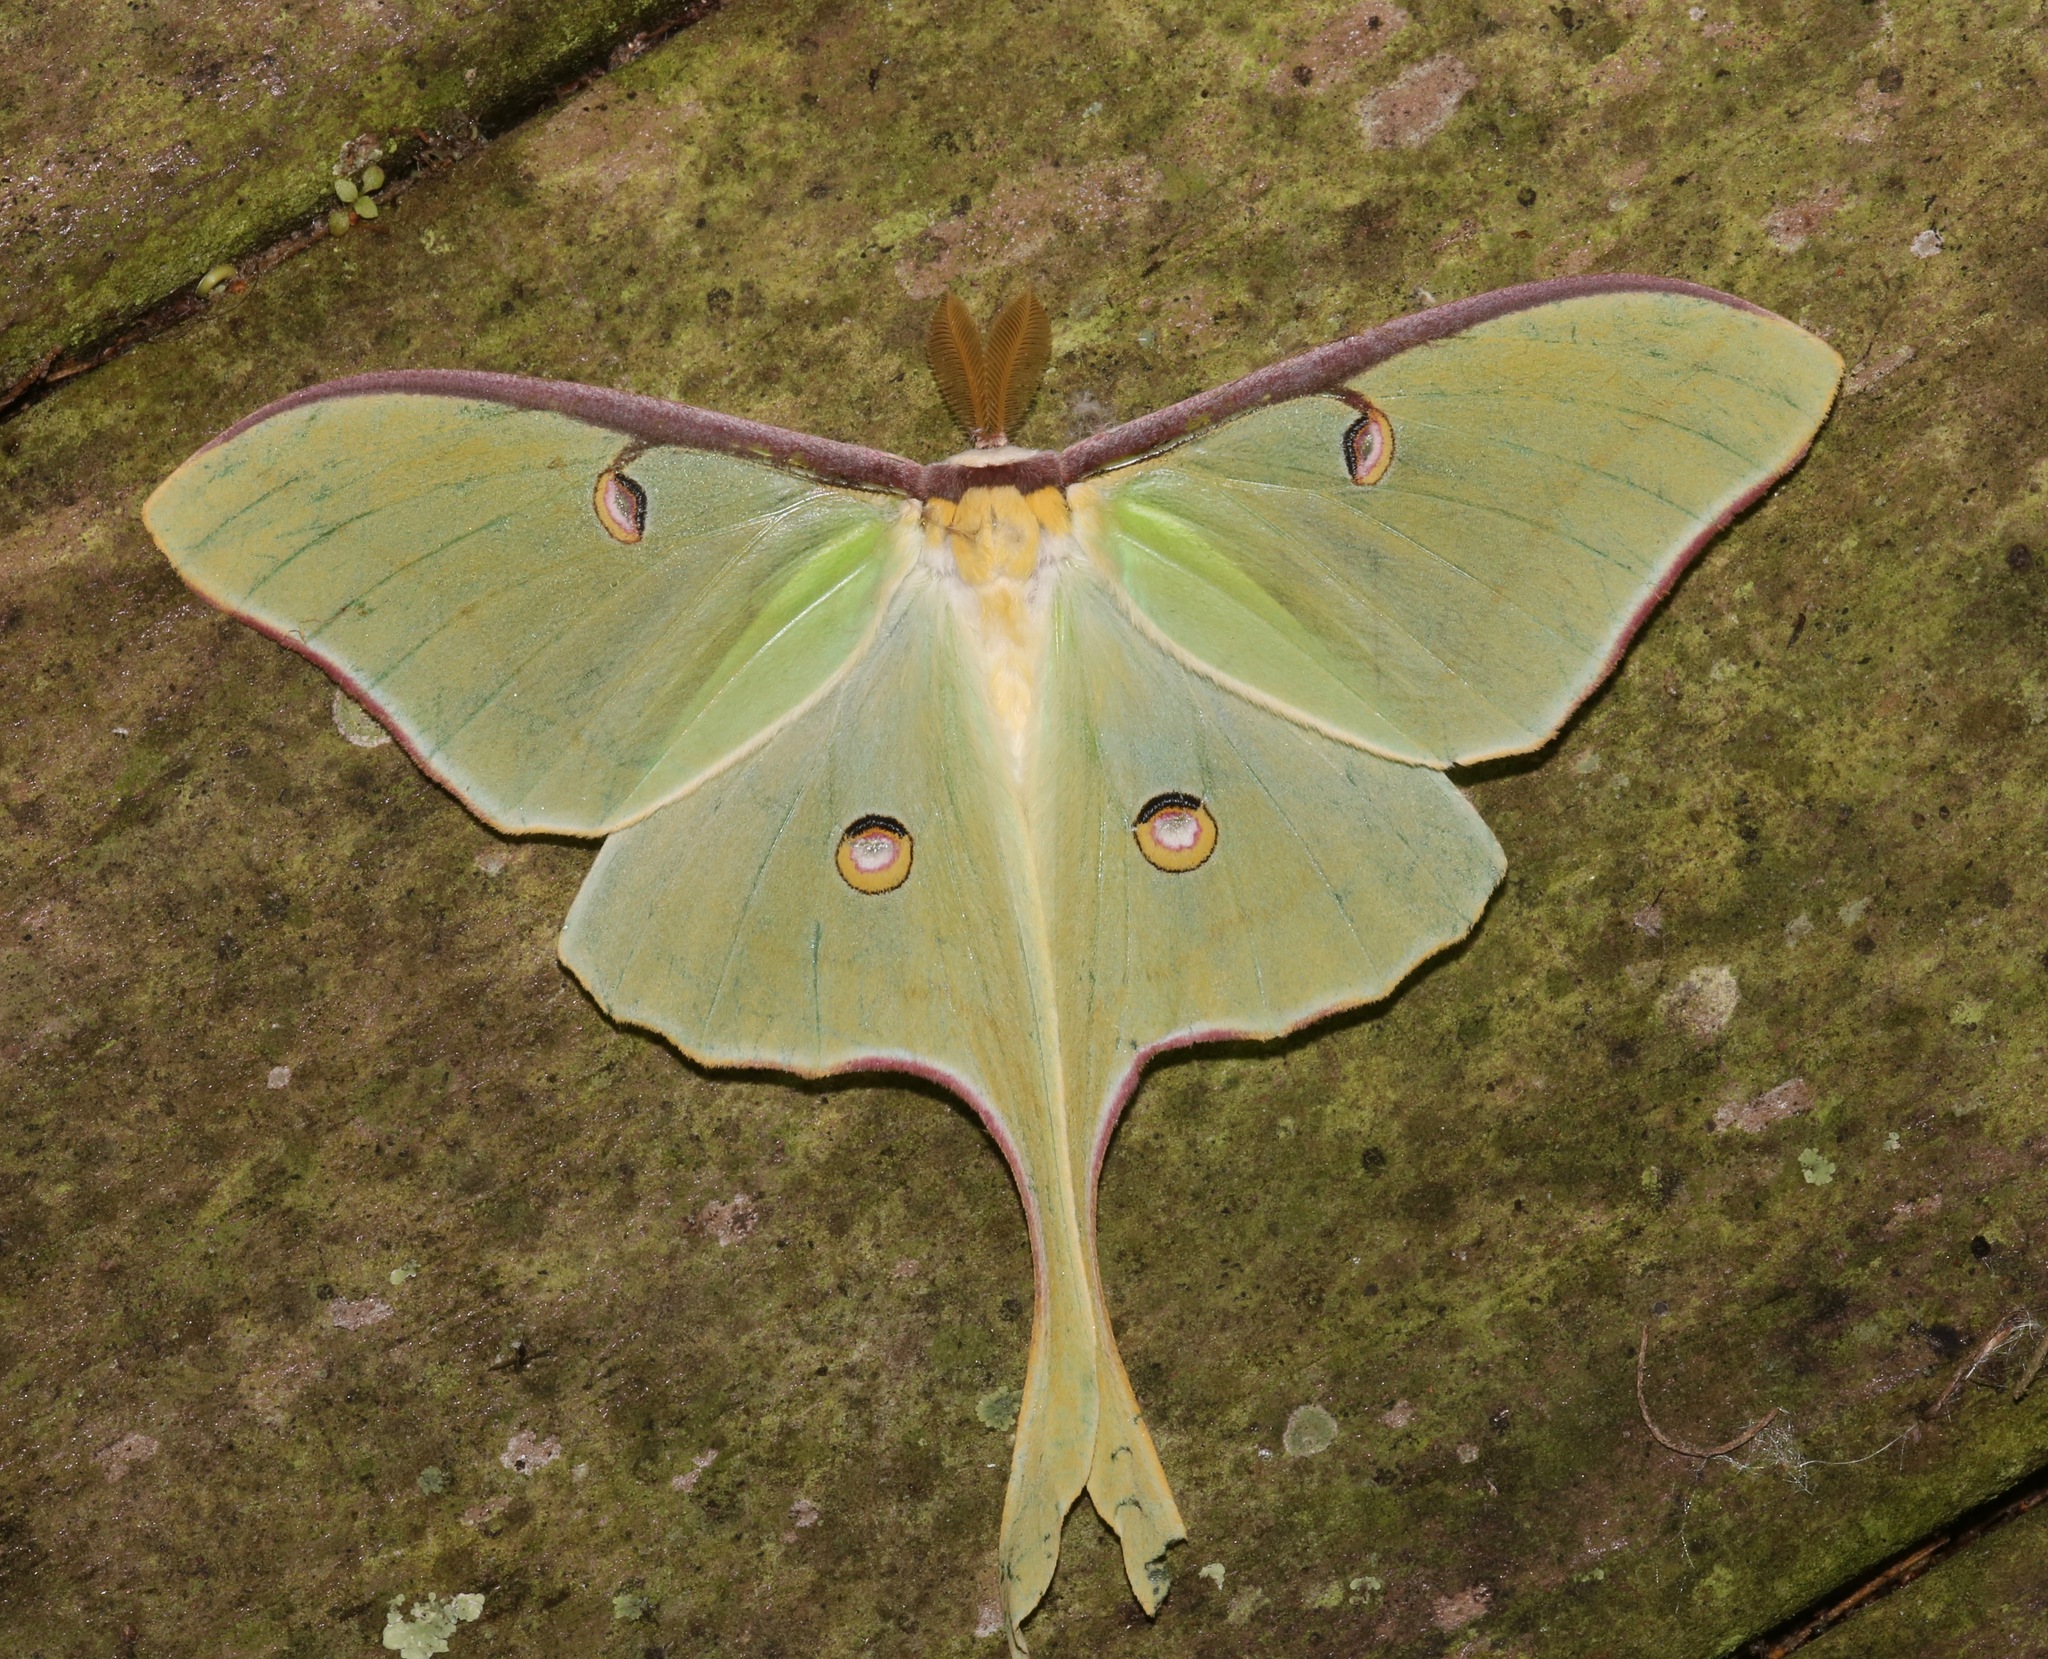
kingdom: Animalia
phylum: Arthropoda
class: Insecta
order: Lepidoptera
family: Saturniidae
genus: Actias
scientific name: Actias luna
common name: Luna moth
